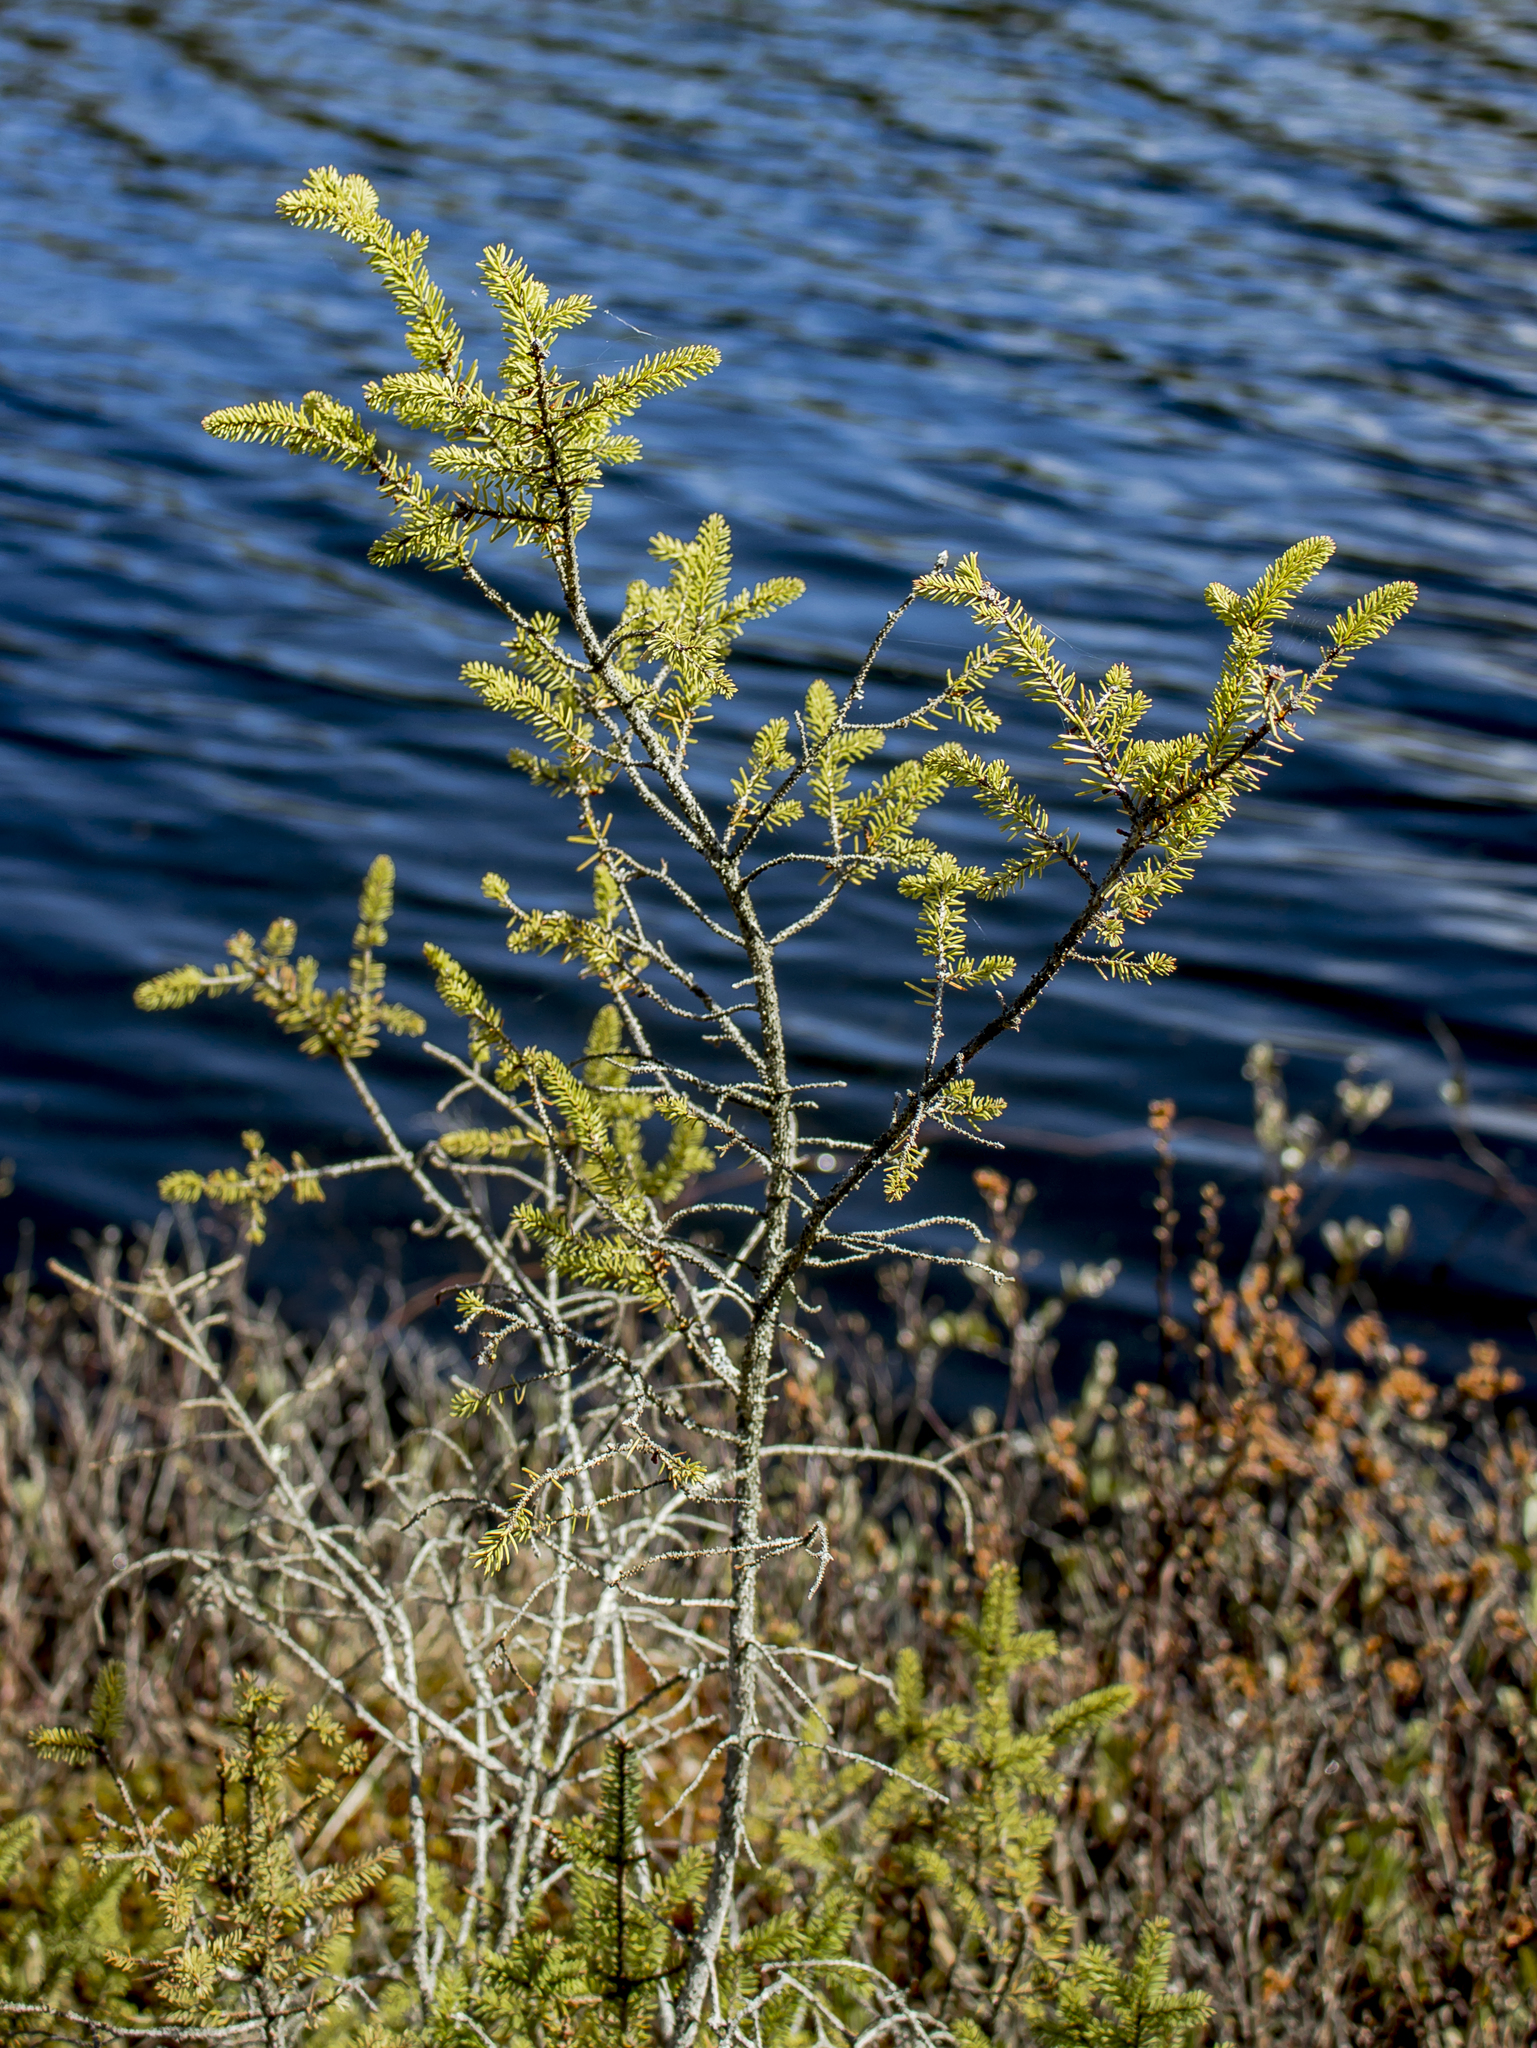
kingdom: Plantae
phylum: Tracheophyta
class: Pinopsida
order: Pinales
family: Pinaceae
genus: Picea
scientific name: Picea mariana
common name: Black spruce
